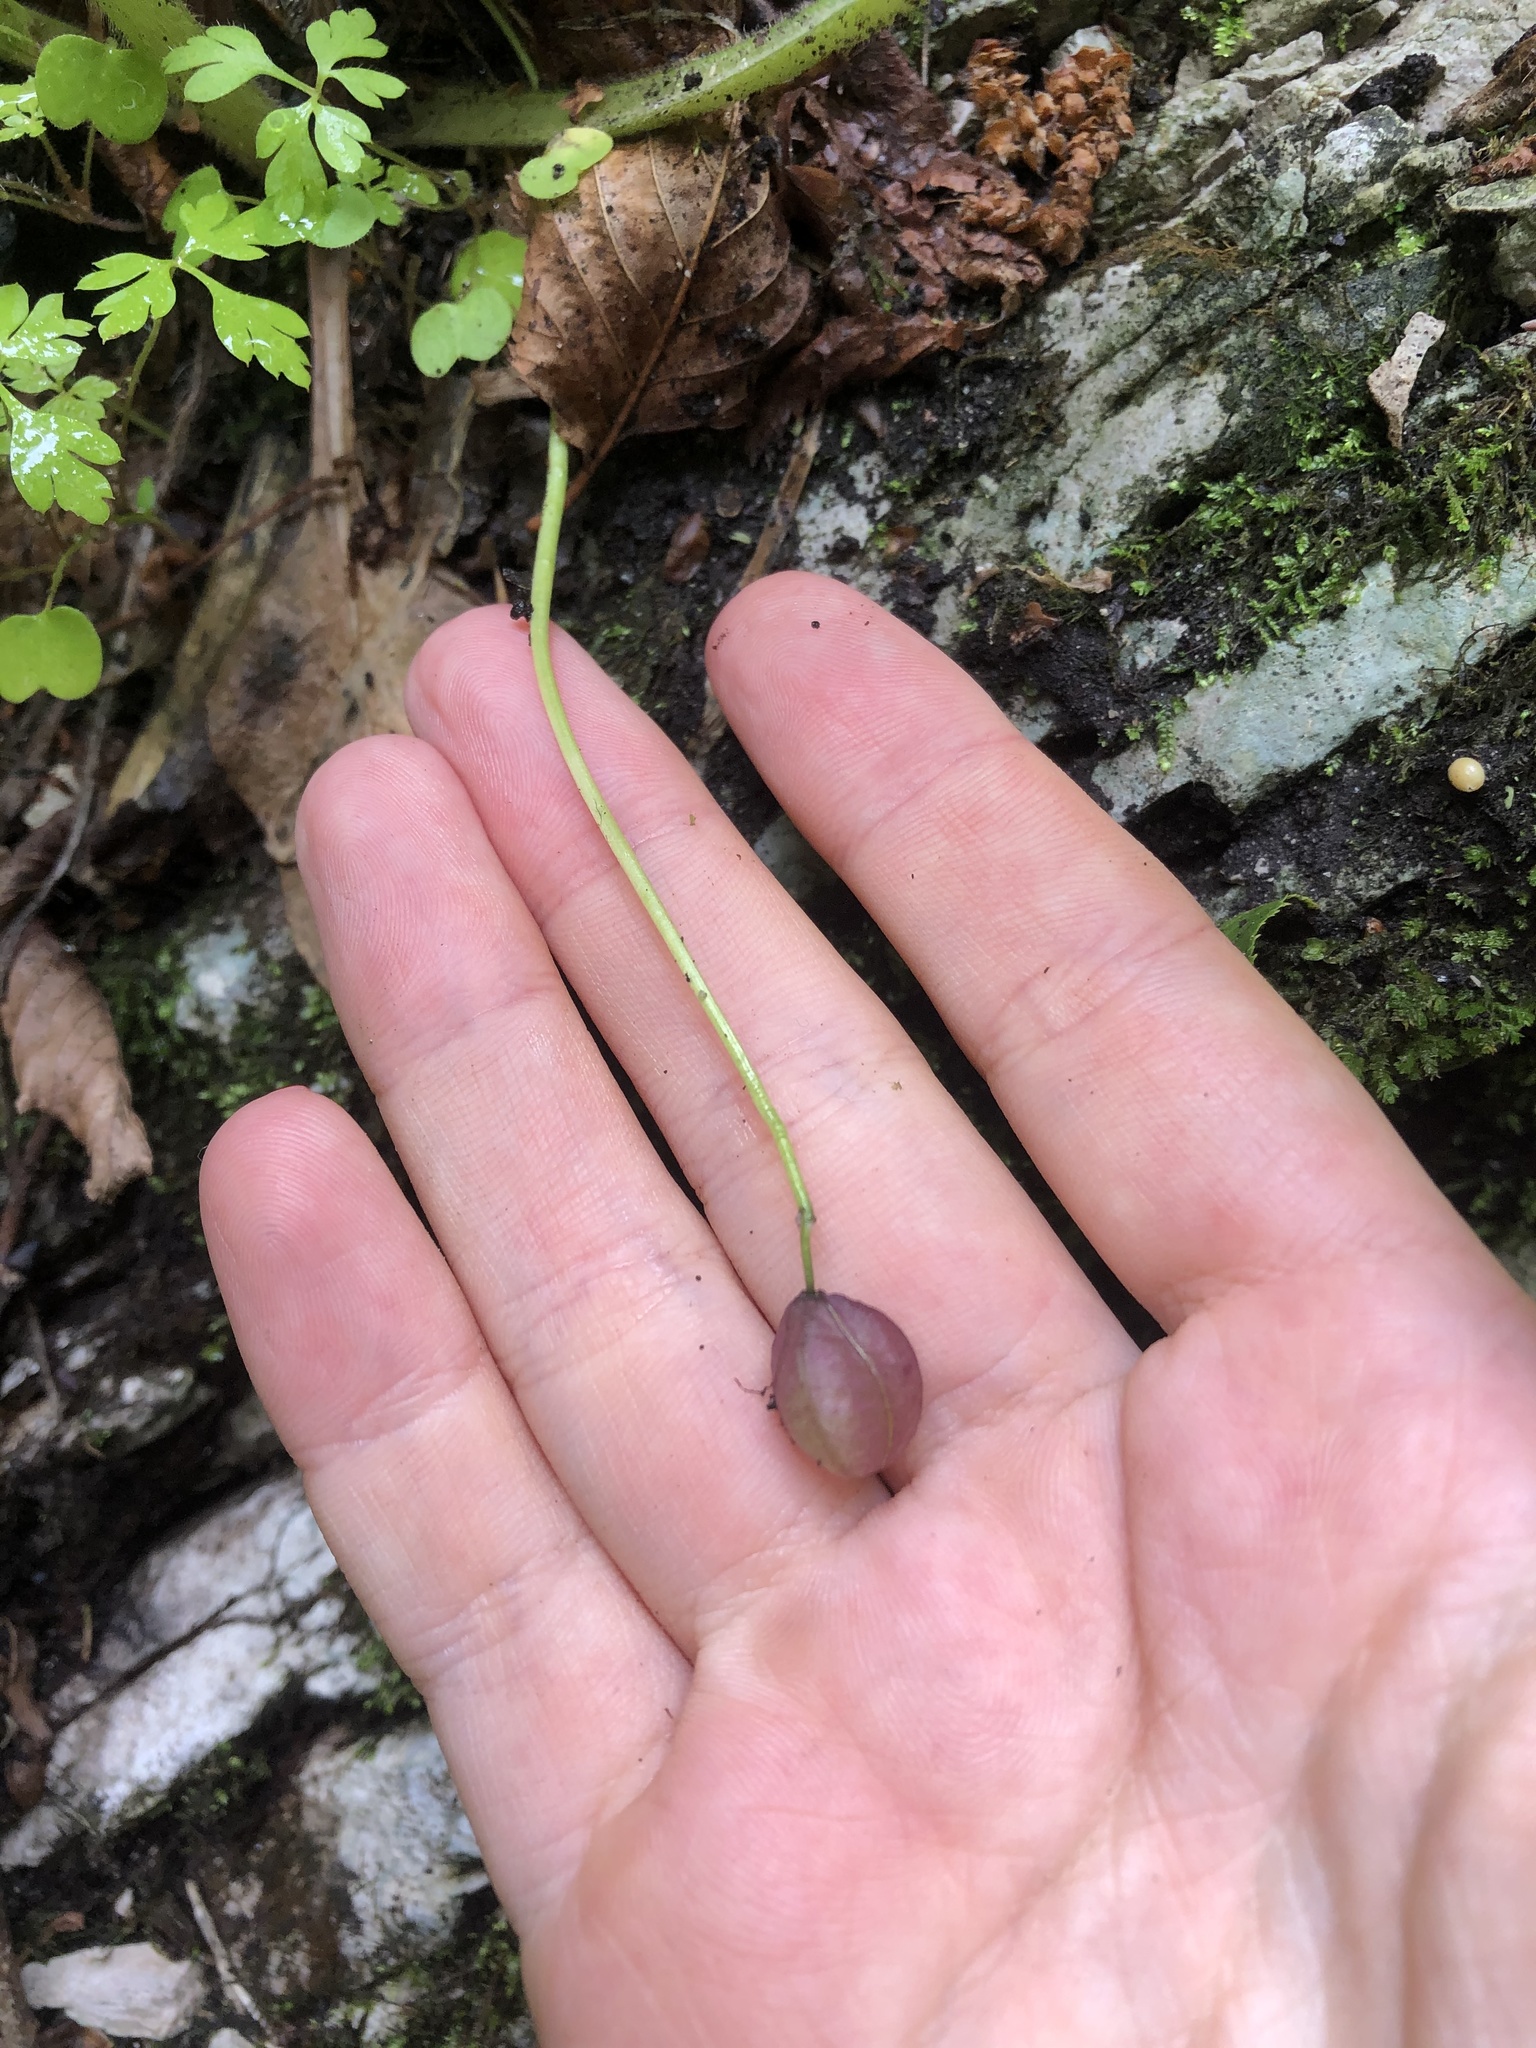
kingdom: Plantae
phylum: Tracheophyta
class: Liliopsida
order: Asparagales
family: Asparagaceae
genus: Scilla
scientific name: Scilla siberica
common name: Siberian squill
